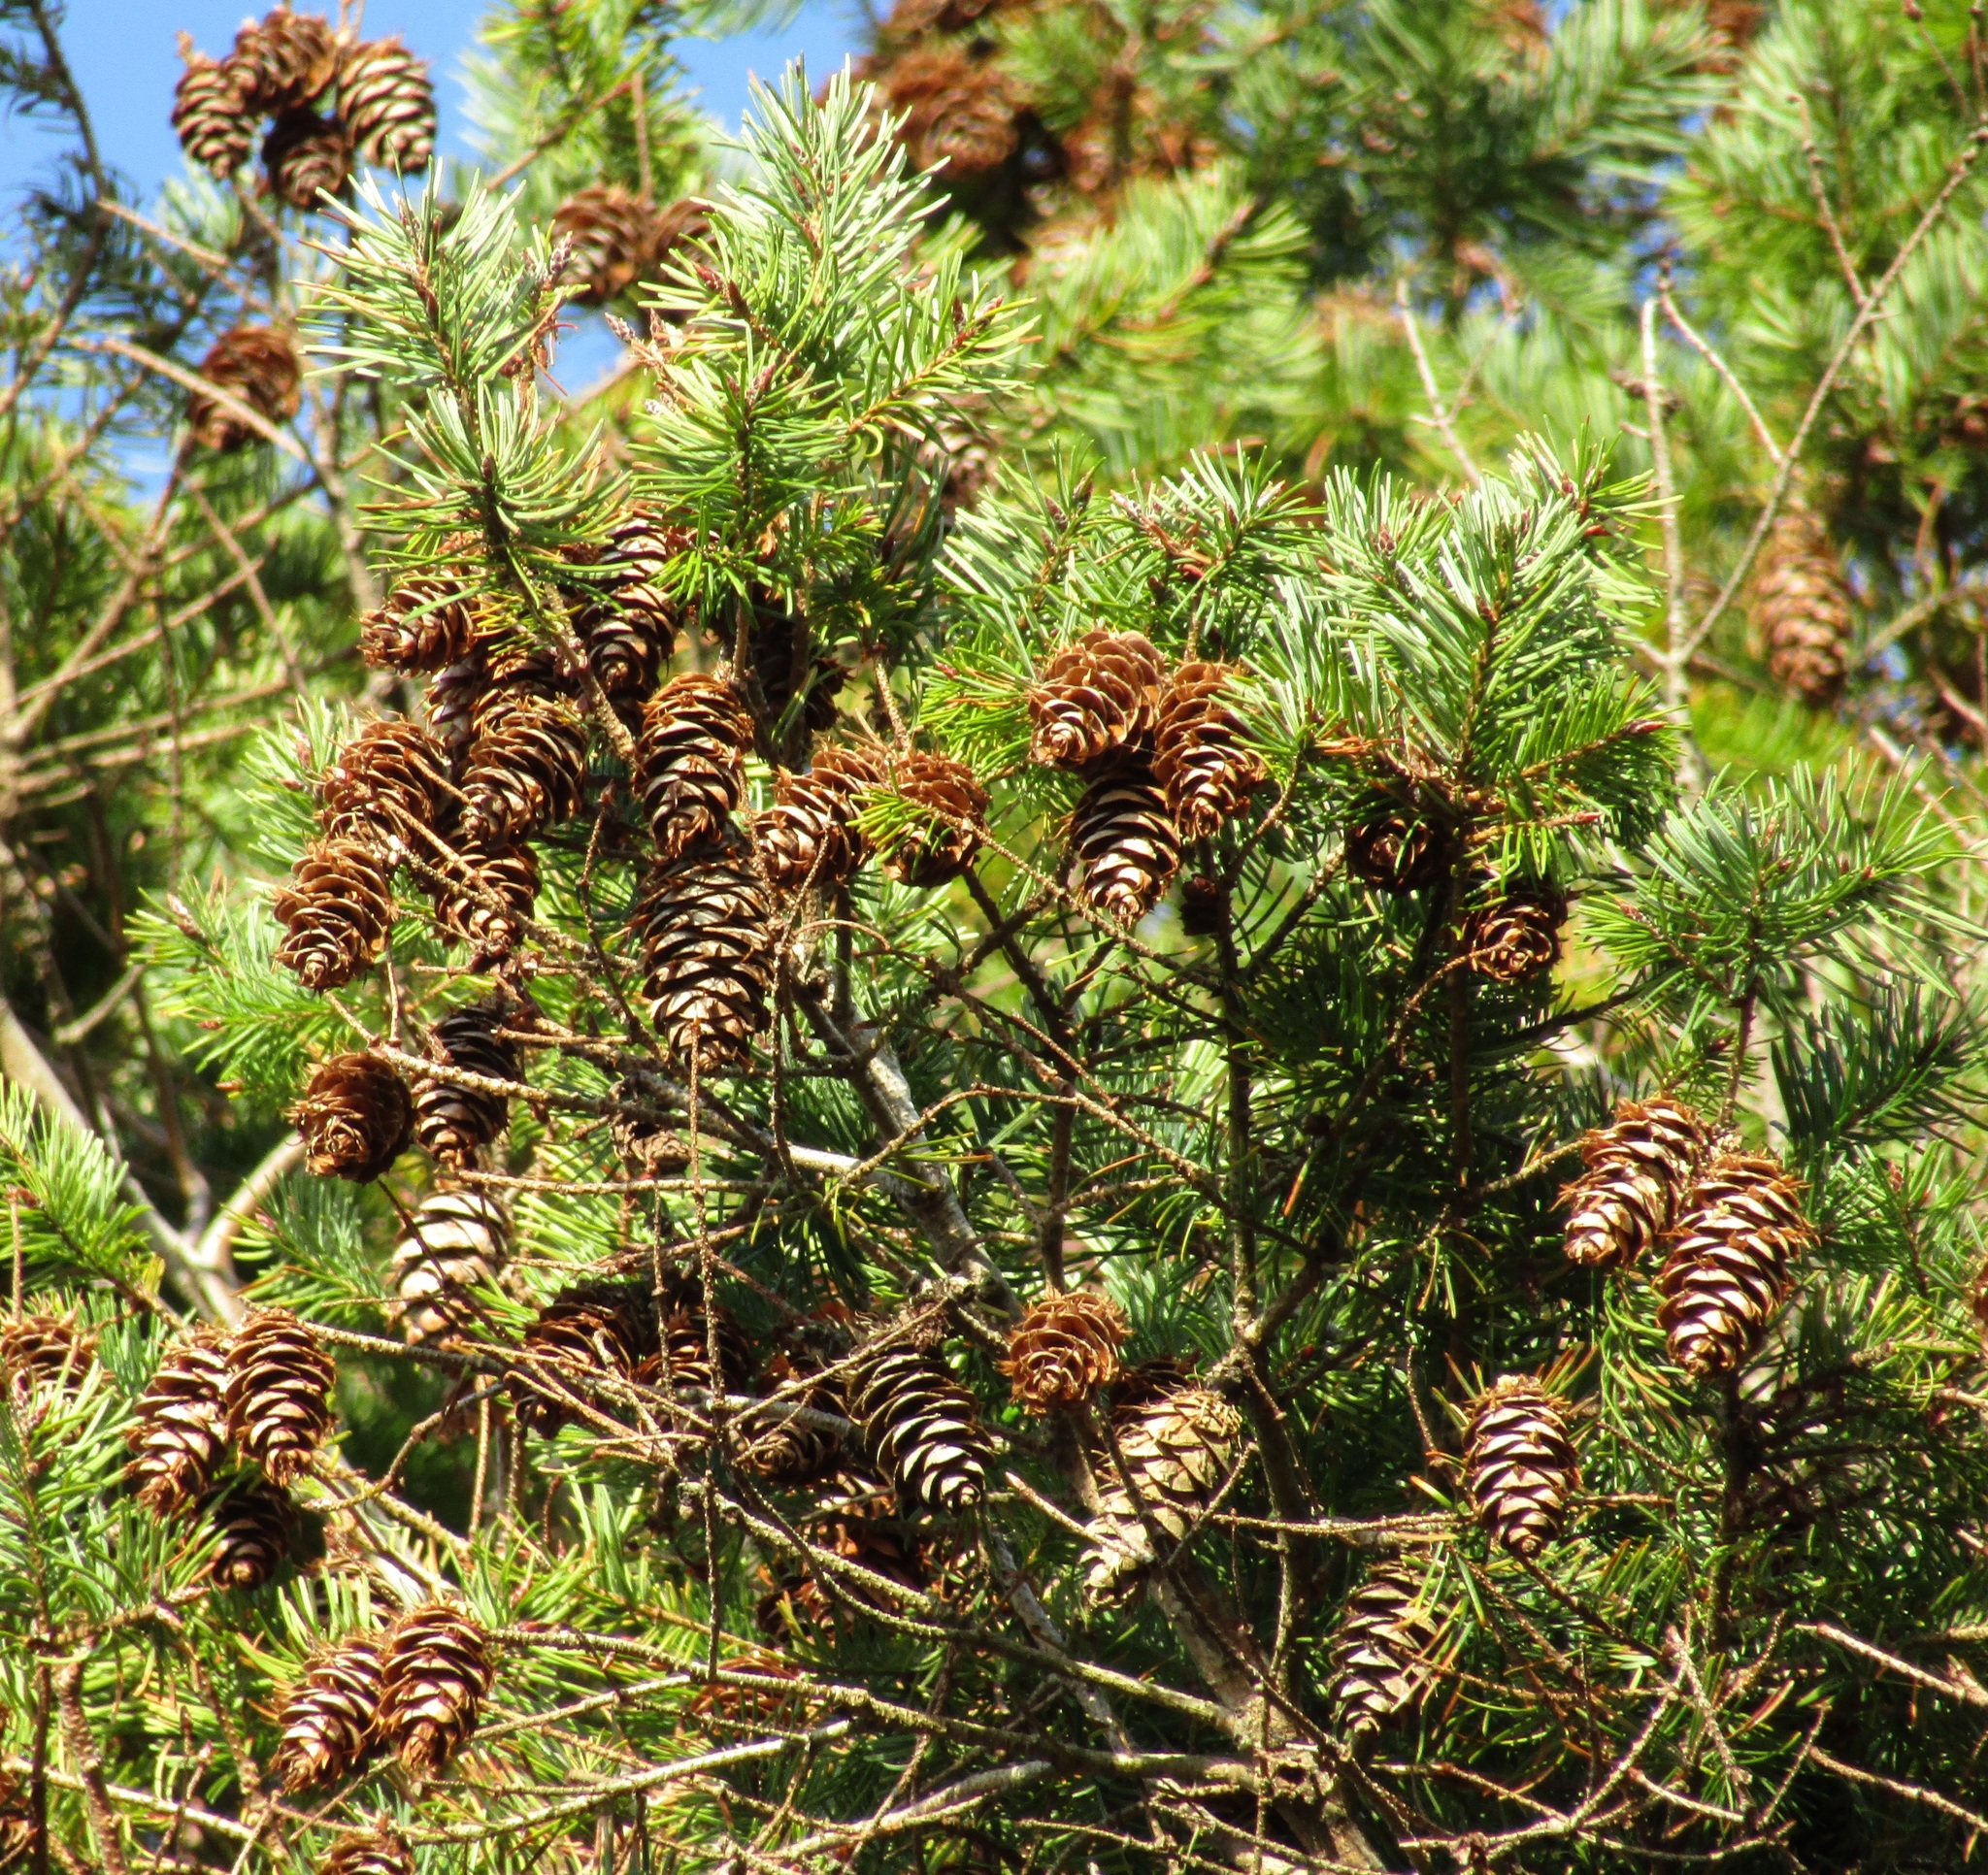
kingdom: Plantae
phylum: Tracheophyta
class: Pinopsida
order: Pinales
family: Pinaceae
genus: Pseudotsuga
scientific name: Pseudotsuga menziesii
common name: Douglas fir
